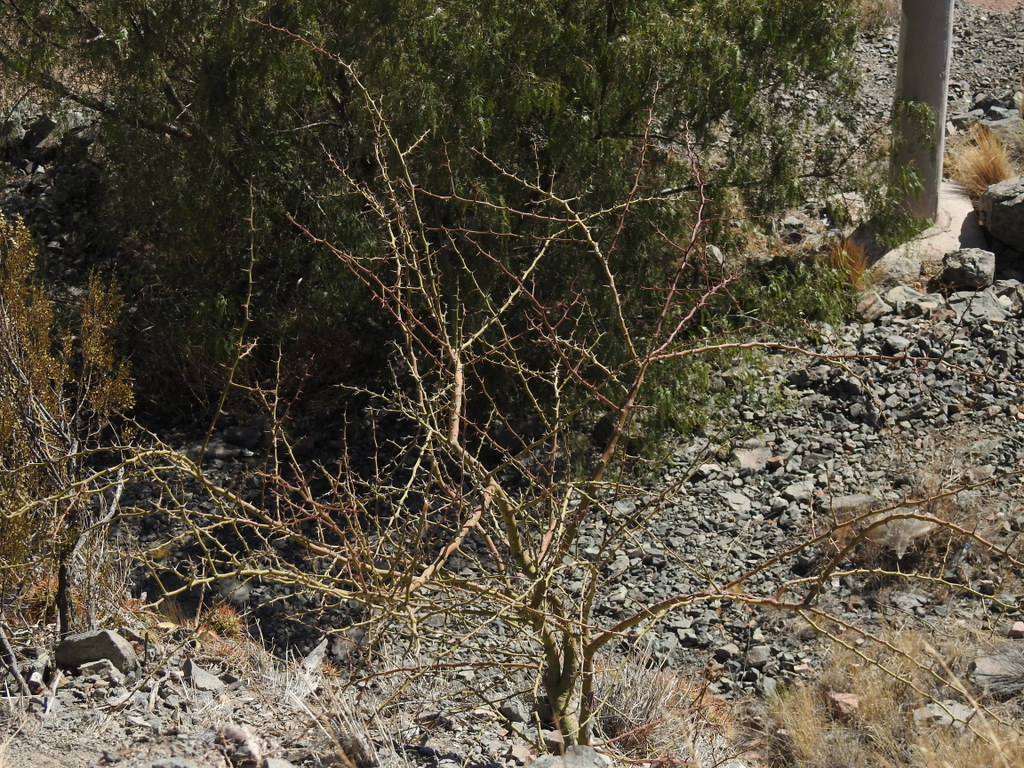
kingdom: Plantae
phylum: Tracheophyta
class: Magnoliopsida
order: Fabales
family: Fabaceae
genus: Parkinsonia
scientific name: Parkinsonia praecox
